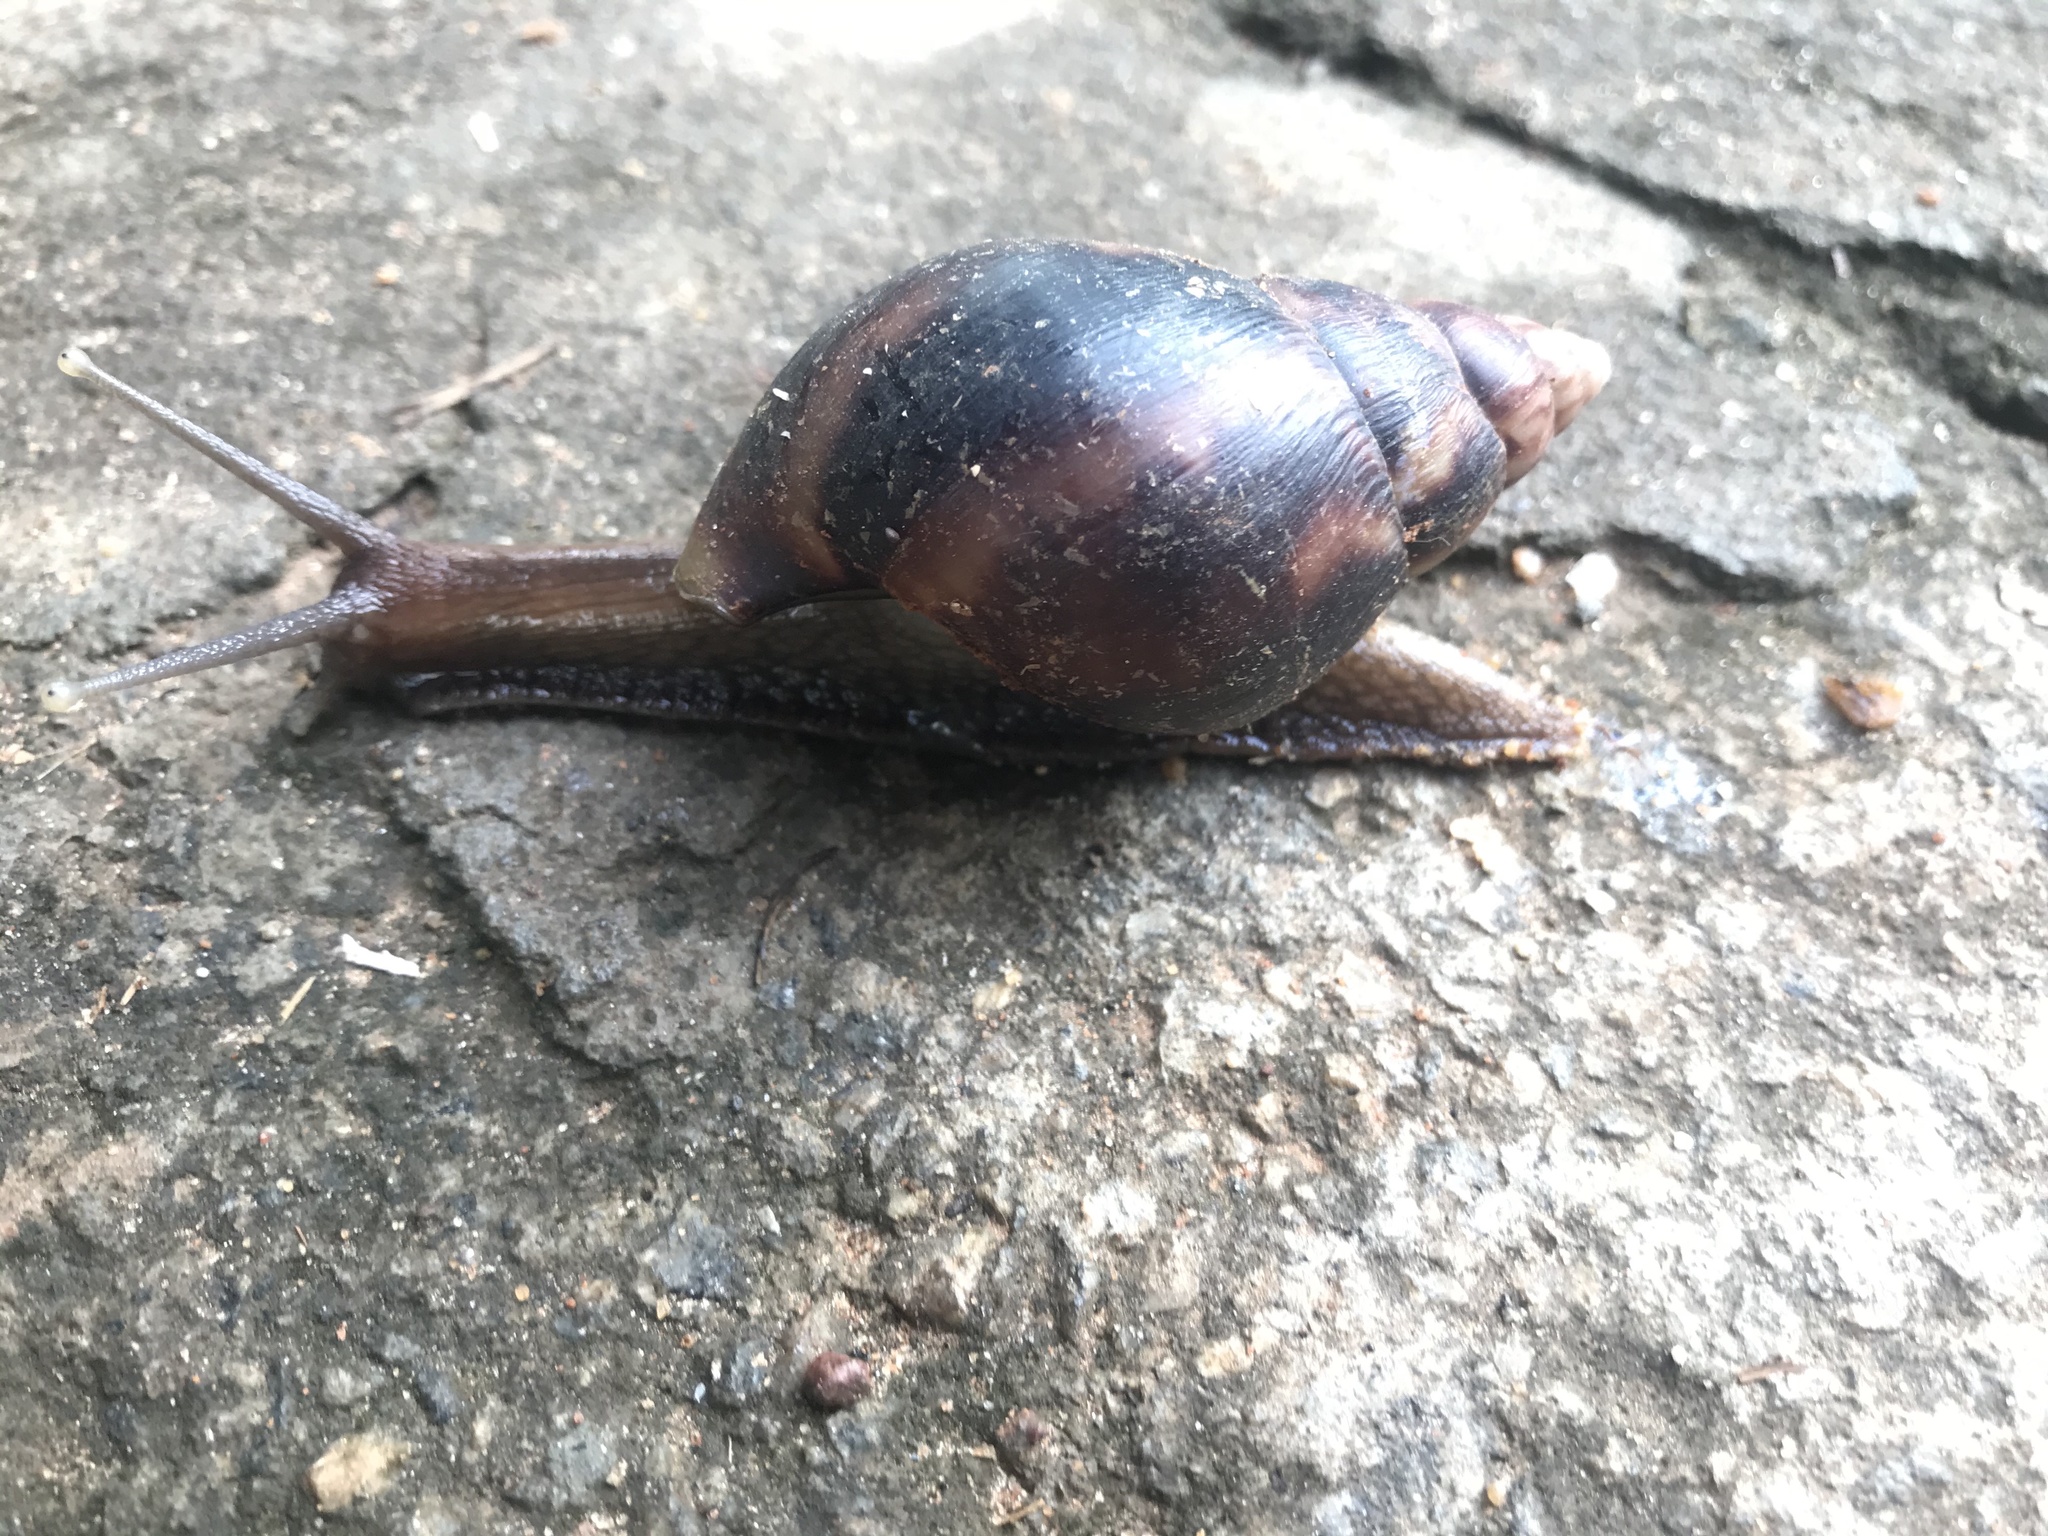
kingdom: Animalia
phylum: Mollusca
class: Gastropoda
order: Stylommatophora
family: Achatinidae
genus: Lissachatina
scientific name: Lissachatina fulica
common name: Giant african snail
